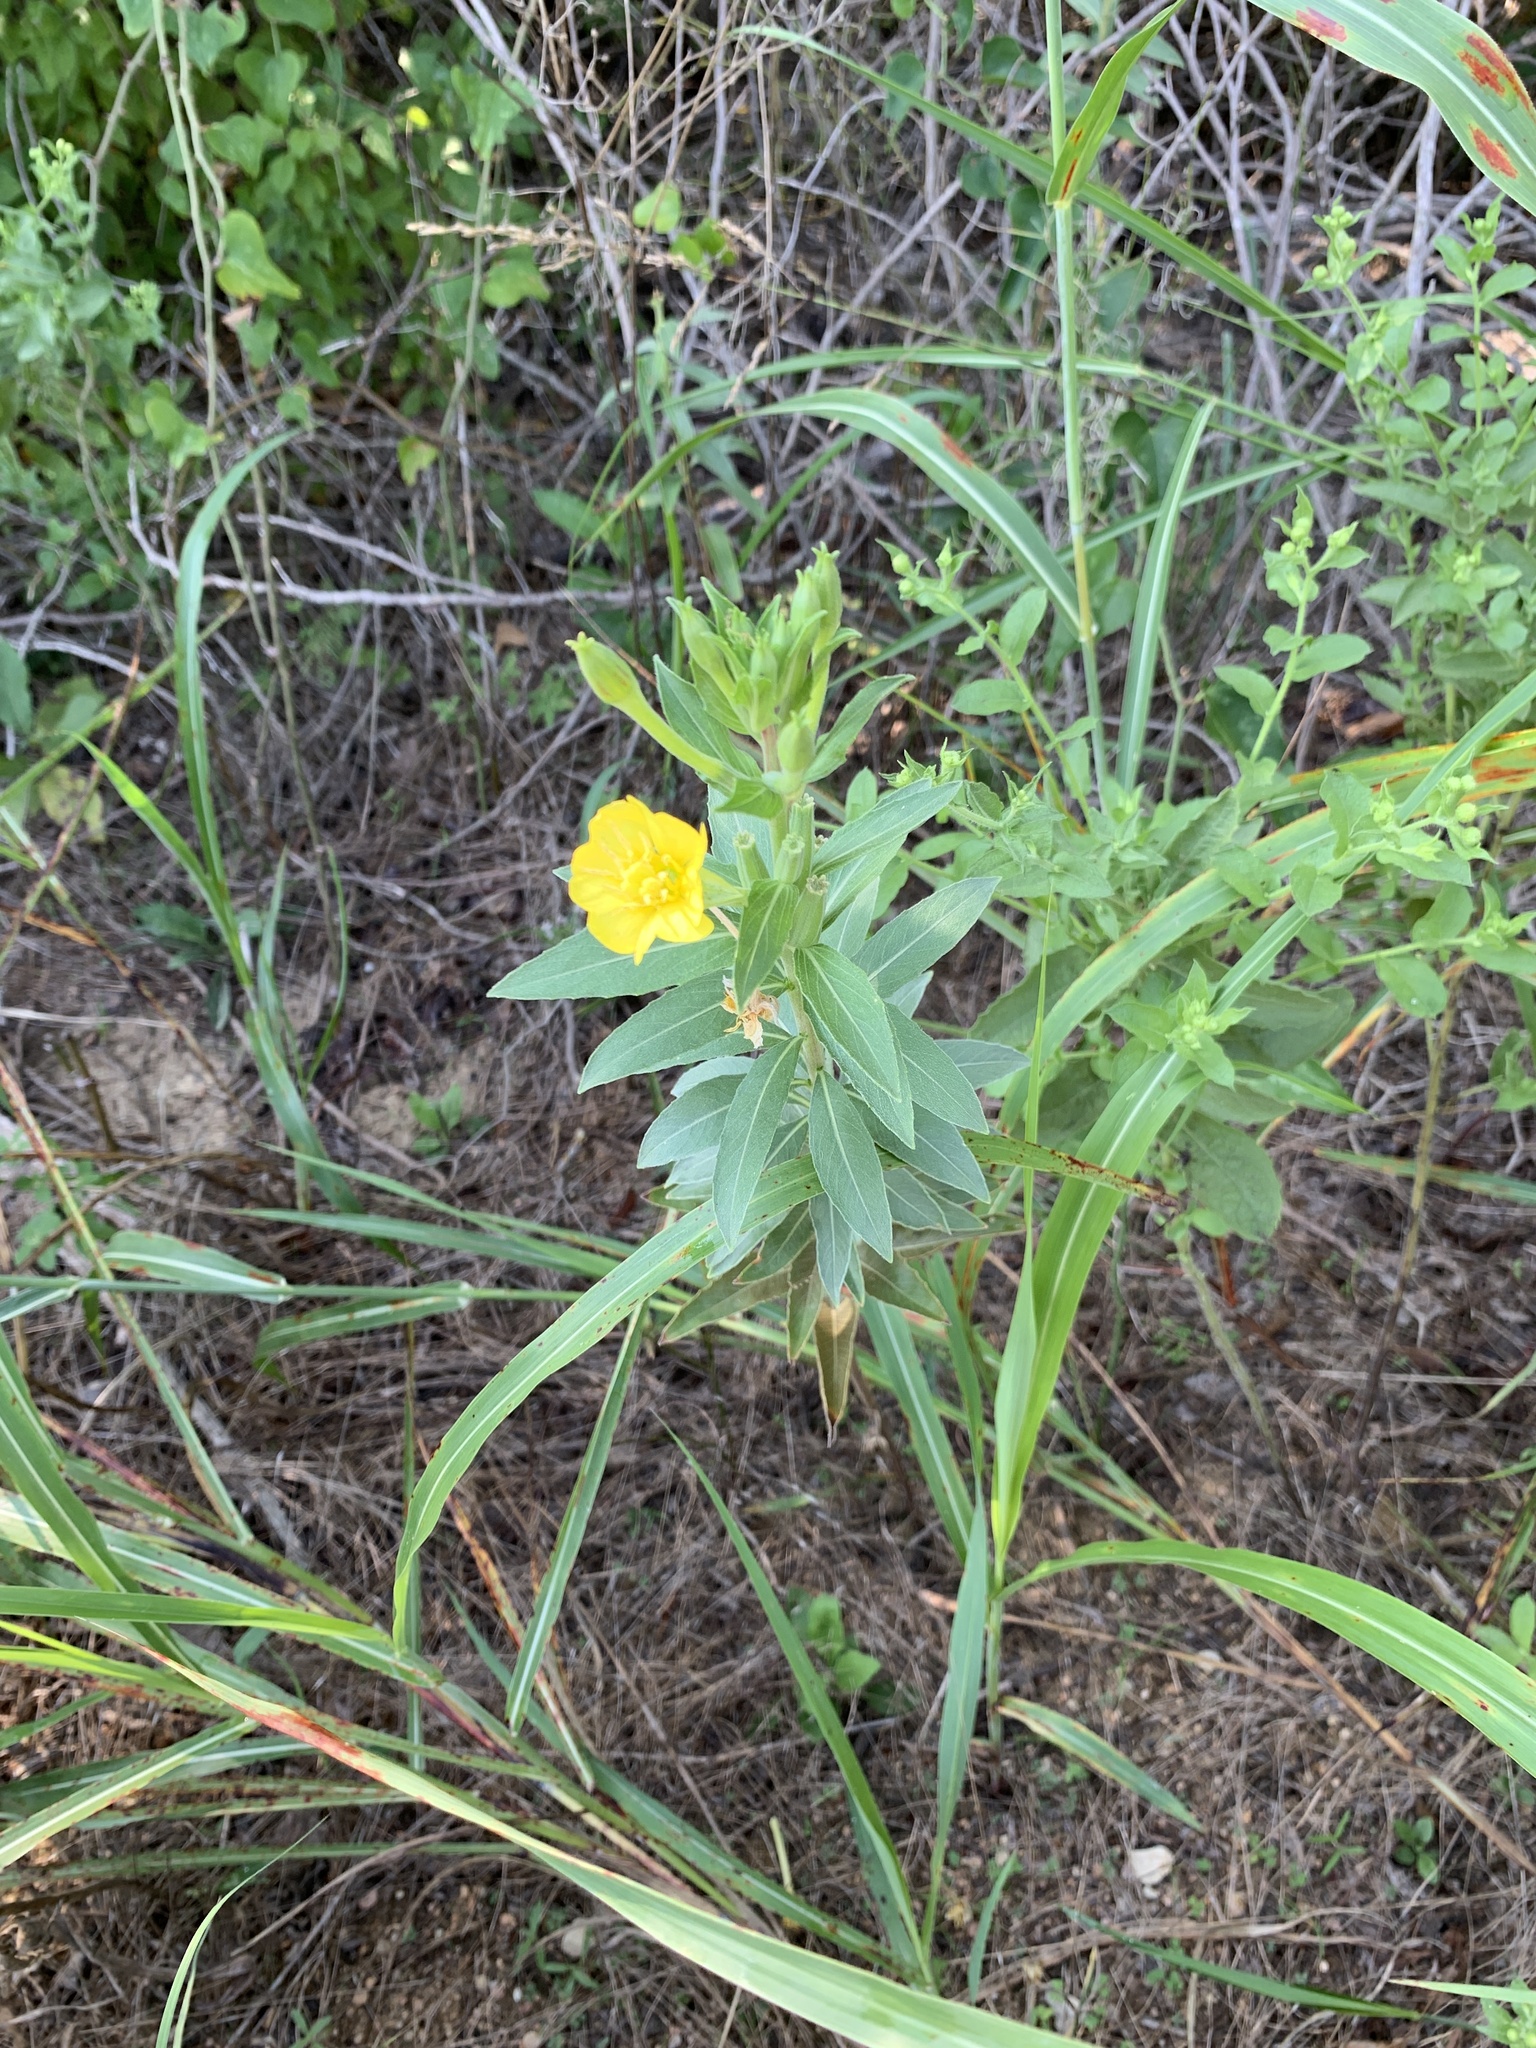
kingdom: Plantae
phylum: Tracheophyta
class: Magnoliopsida
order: Myrtales
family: Onagraceae
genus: Oenothera
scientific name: Oenothera biennis
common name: Common evening-primrose
